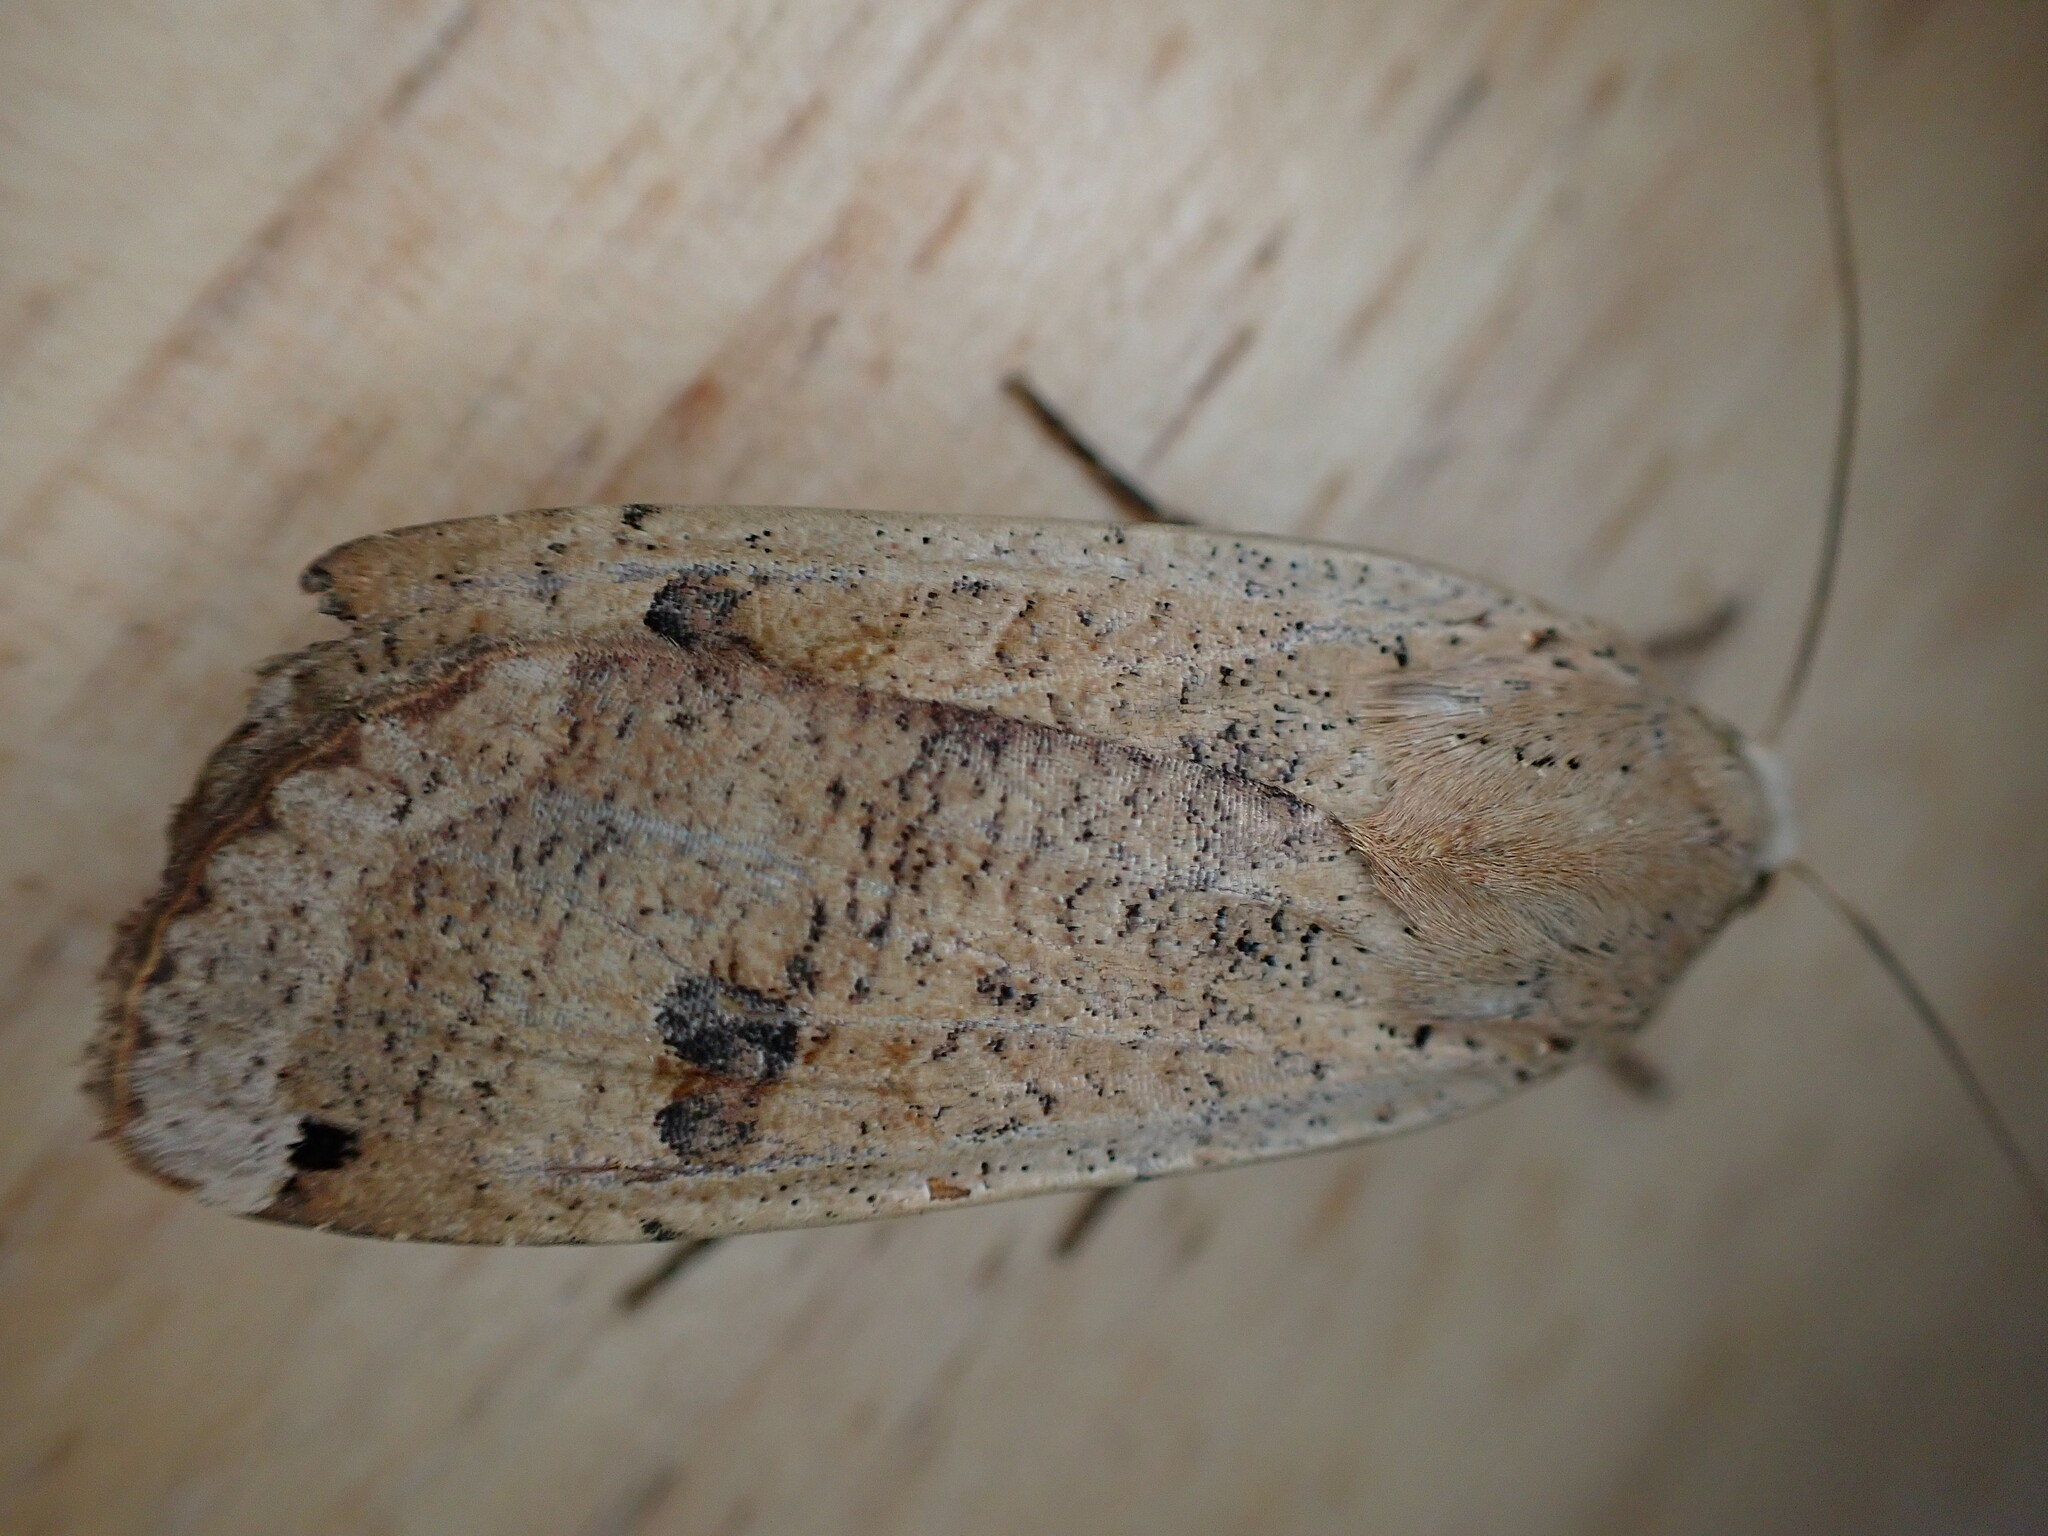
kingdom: Animalia
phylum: Arthropoda
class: Insecta
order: Lepidoptera
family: Noctuidae
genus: Noctua
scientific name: Noctua pronuba
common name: Large yellow underwing
